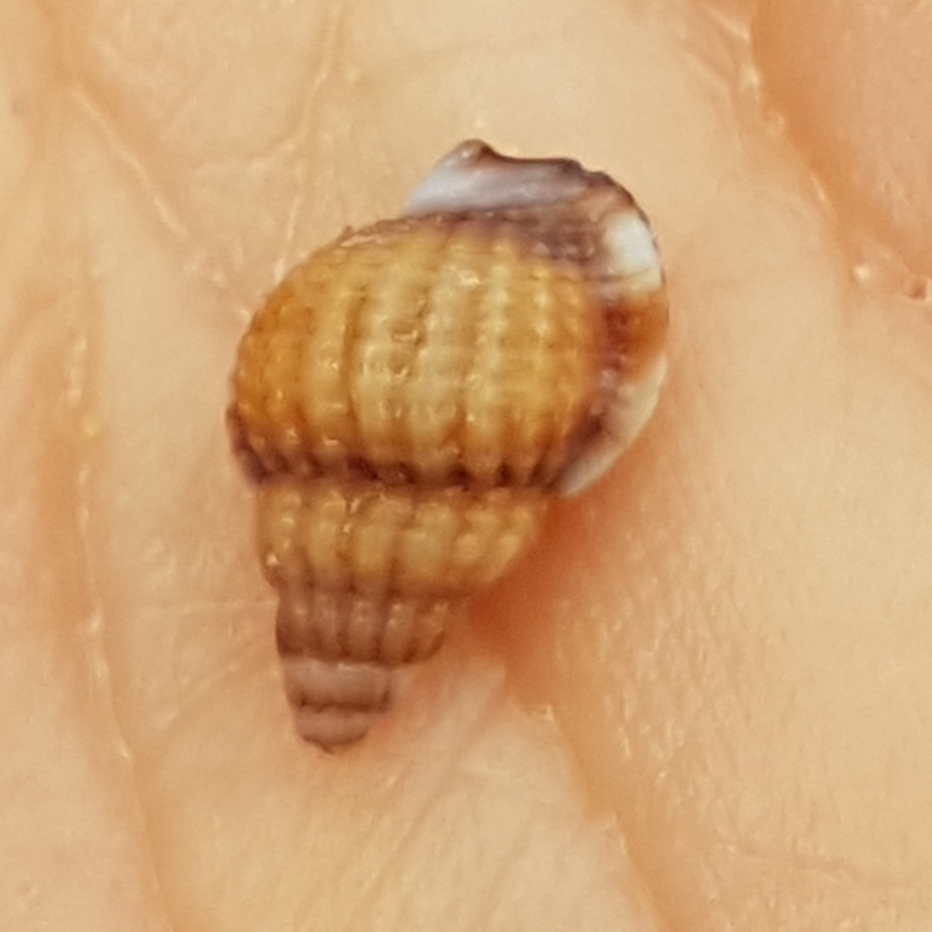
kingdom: Animalia
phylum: Mollusca
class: Gastropoda
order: Neogastropoda
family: Nassariidae
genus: Tritia
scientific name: Tritia varicosa
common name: Small dog whelk
